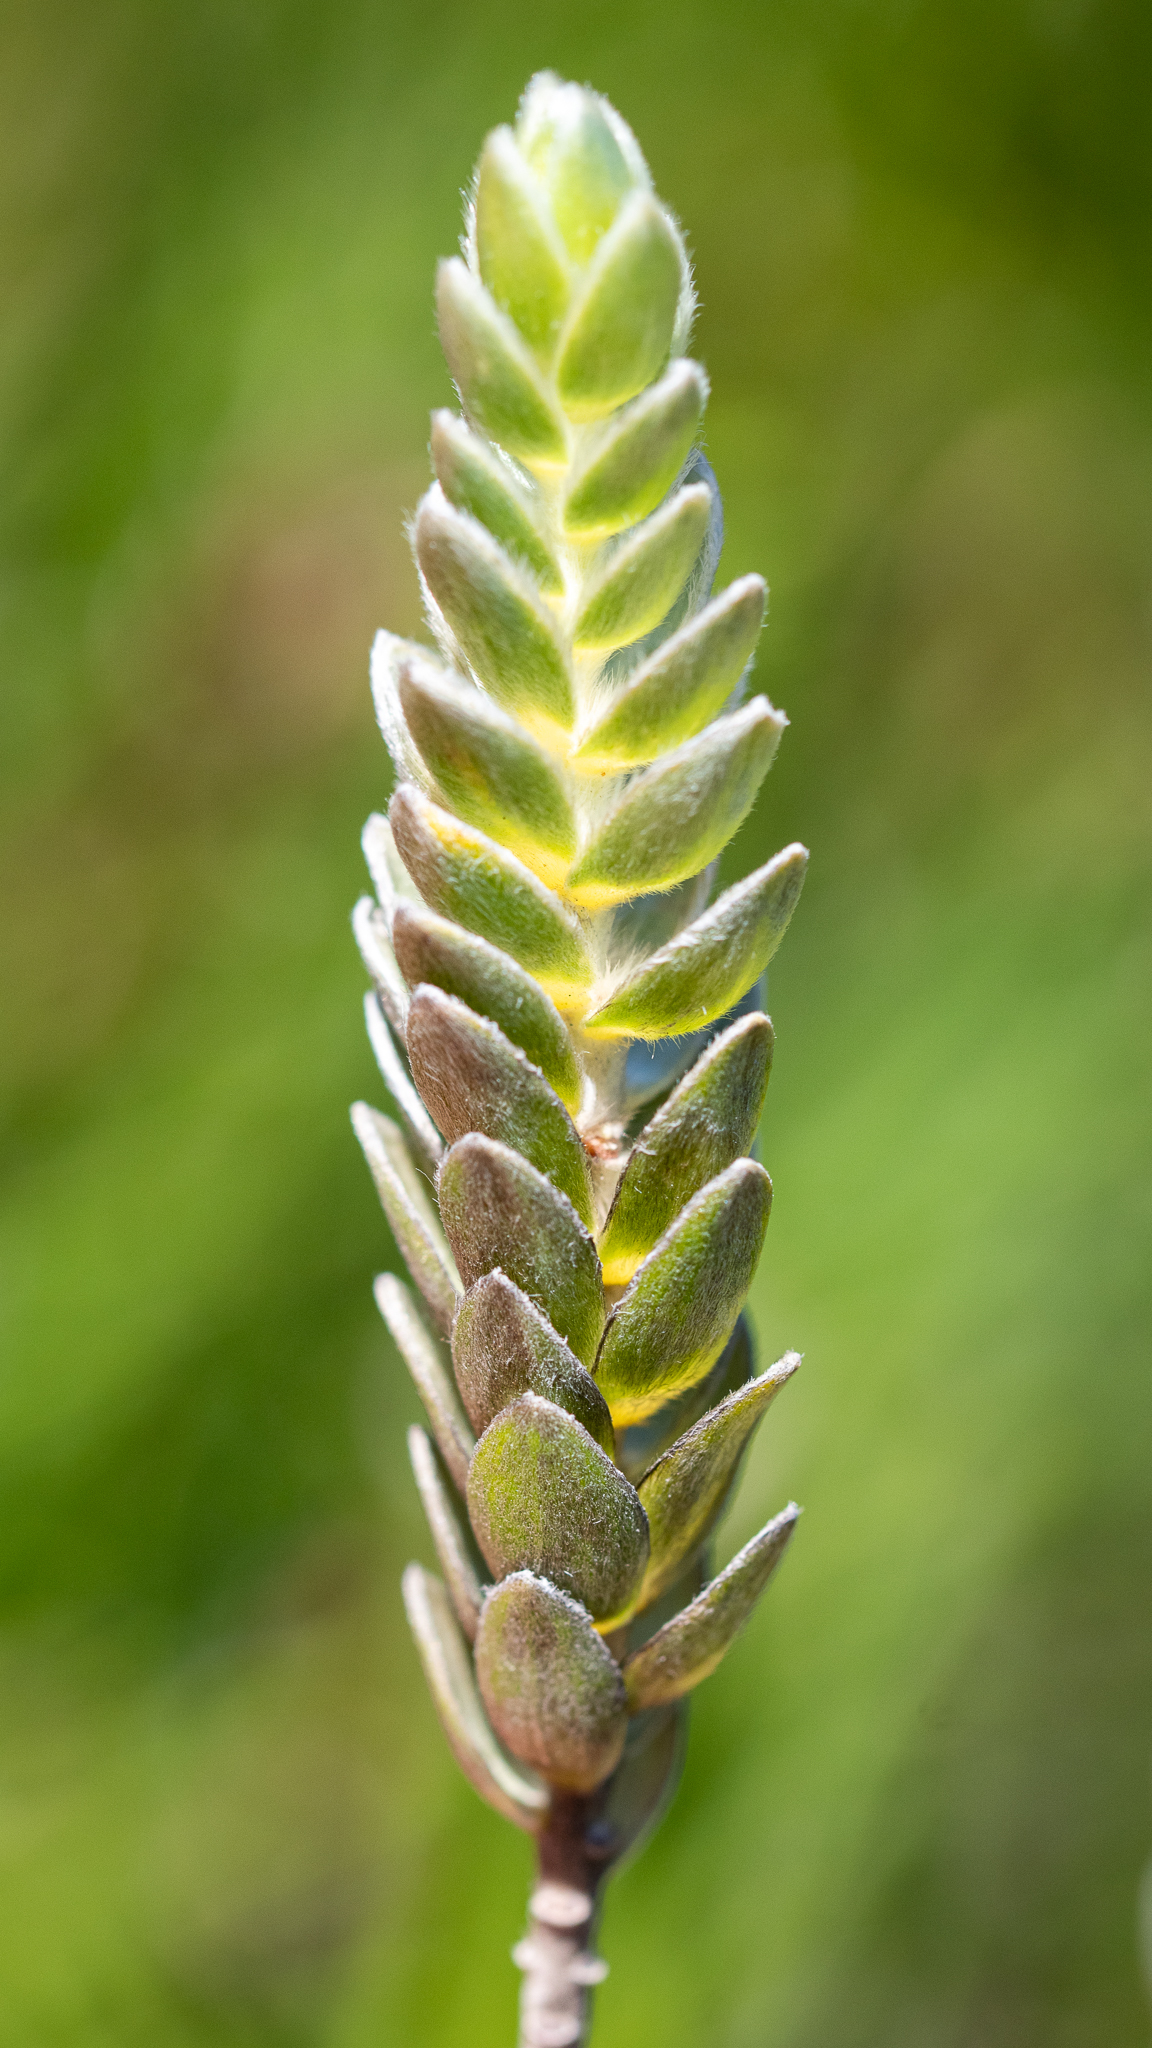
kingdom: Plantae
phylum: Tracheophyta
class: Magnoliopsida
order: Malvales
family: Thymelaeaceae
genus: Gnidia
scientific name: Gnidia anomala
